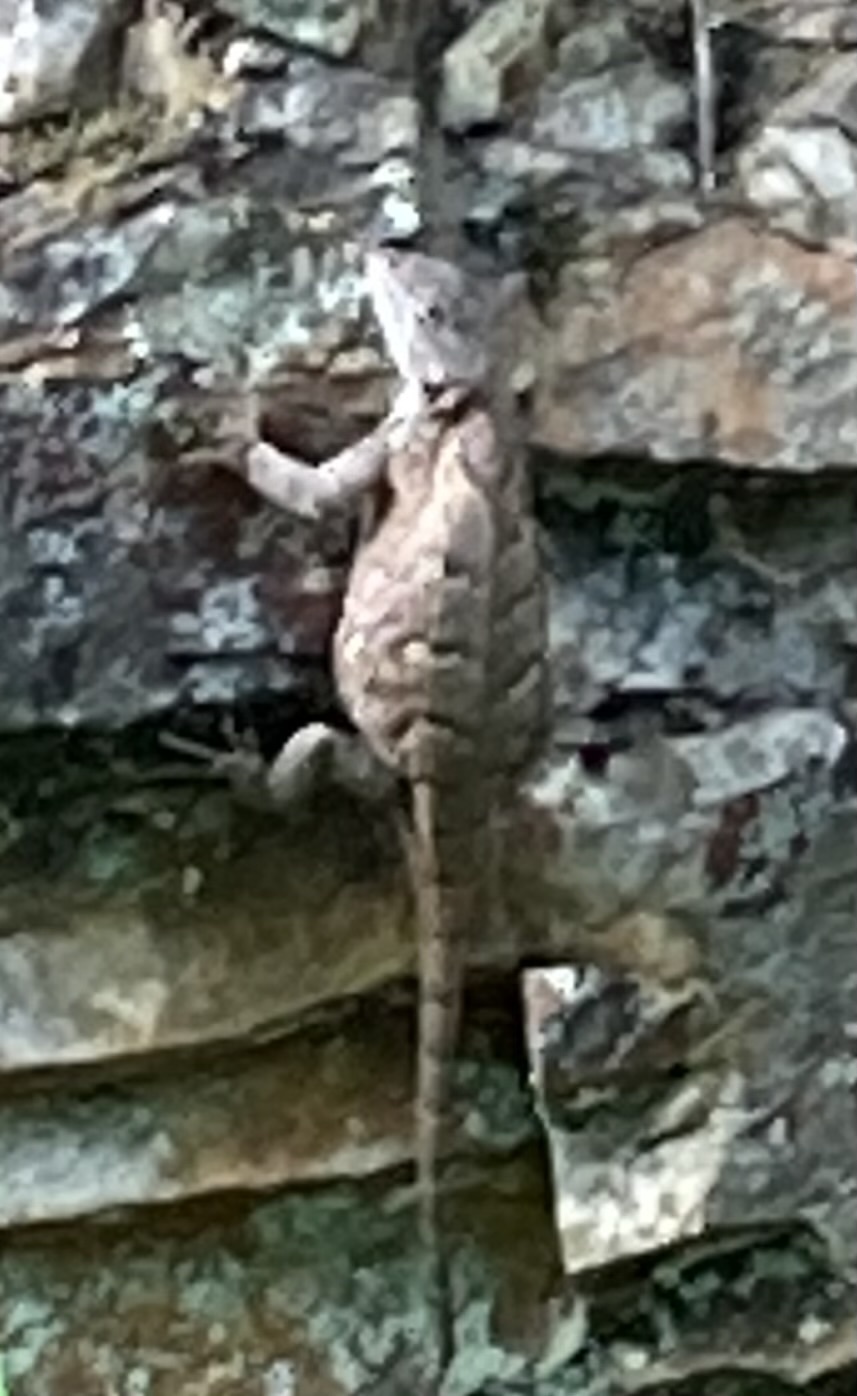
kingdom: Animalia
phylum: Chordata
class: Squamata
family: Phrynosomatidae
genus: Sceloporus
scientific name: Sceloporus undulatus
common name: Eastern fence lizard
